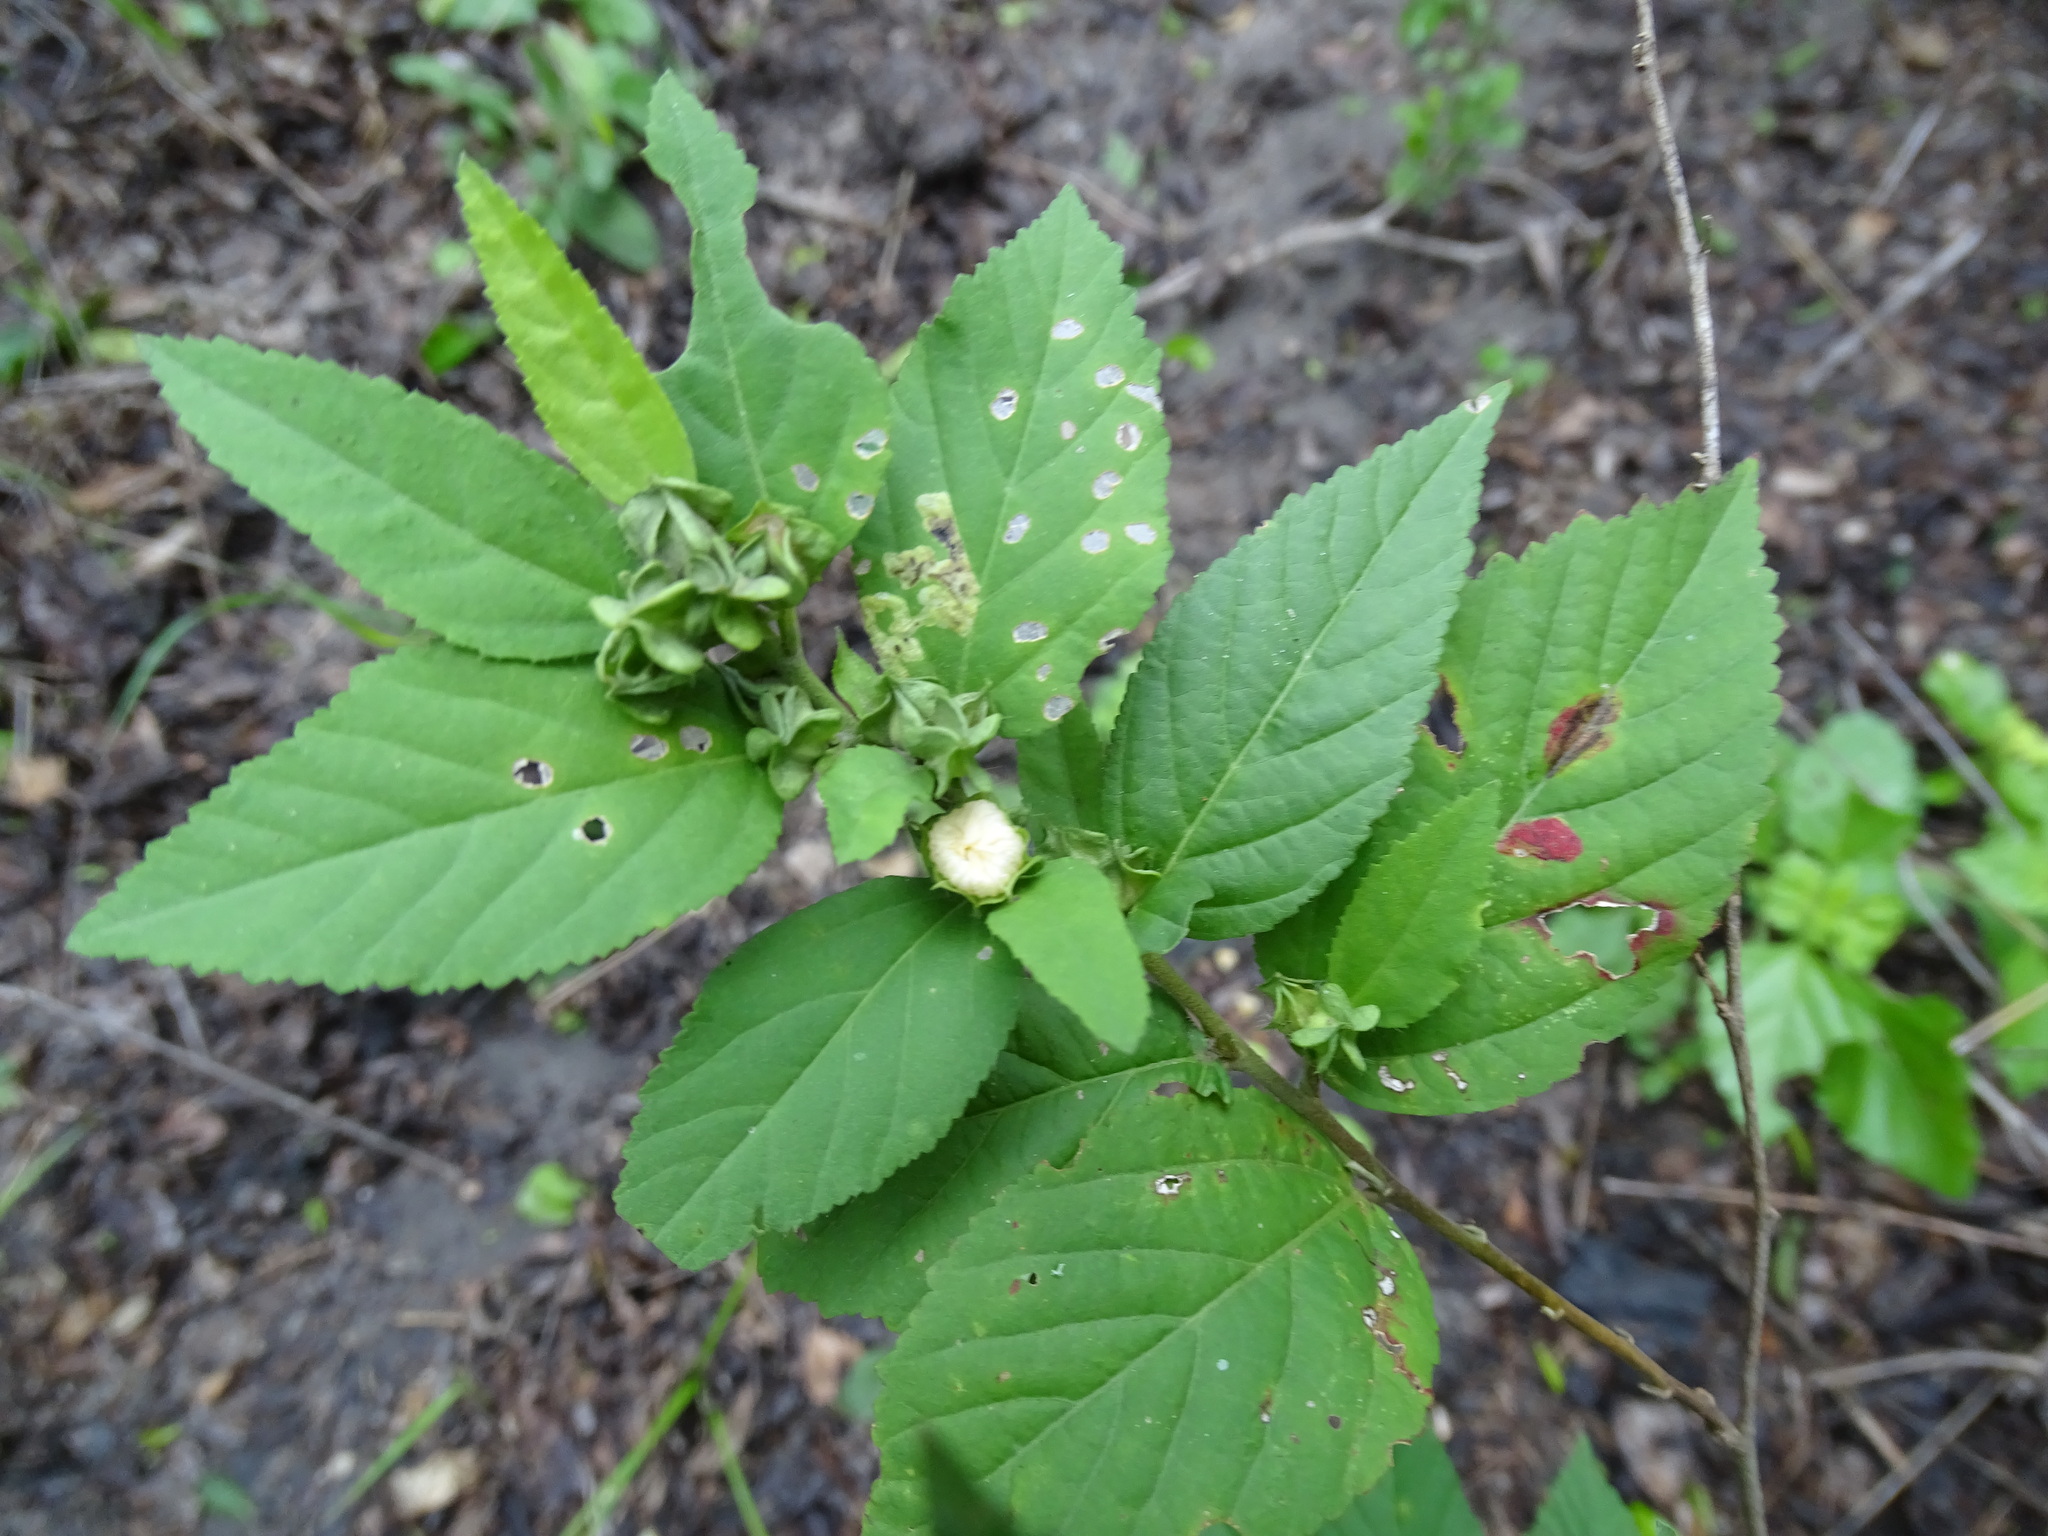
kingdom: Plantae
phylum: Tracheophyta
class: Magnoliopsida
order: Malvales
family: Malvaceae
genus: Malvastrum
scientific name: Malvastrum coromandelianum
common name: Threelobe false mallow
